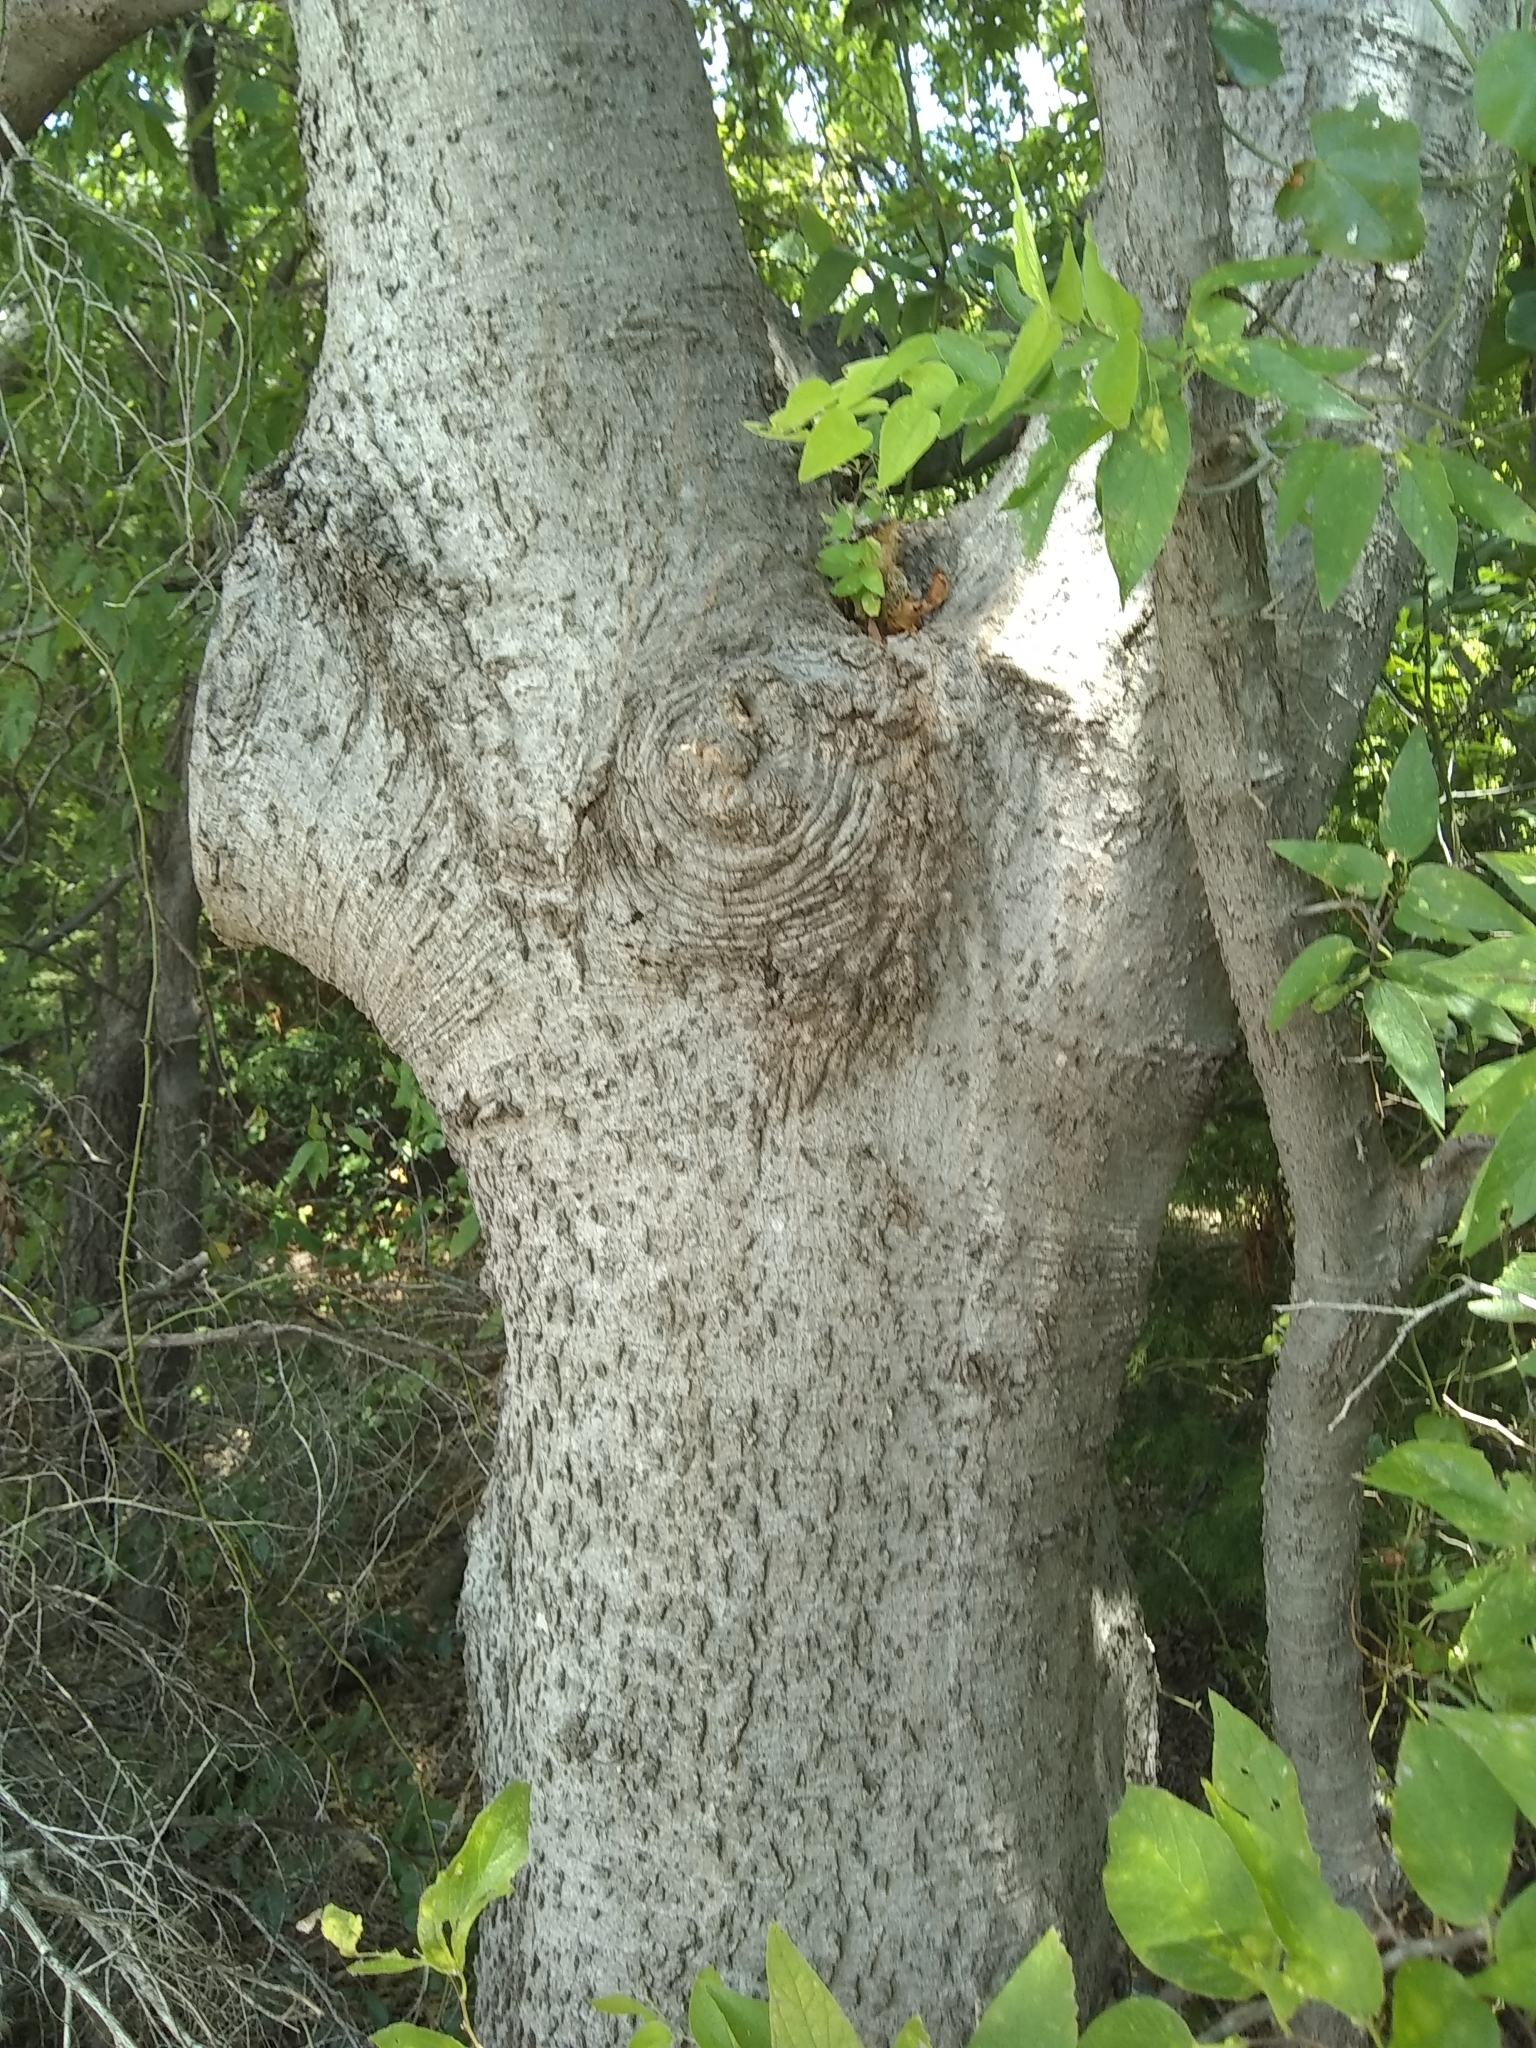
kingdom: Plantae
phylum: Tracheophyta
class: Magnoliopsida
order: Rosales
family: Cannabaceae
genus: Celtis
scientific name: Celtis laevigata
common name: Sugarberry
